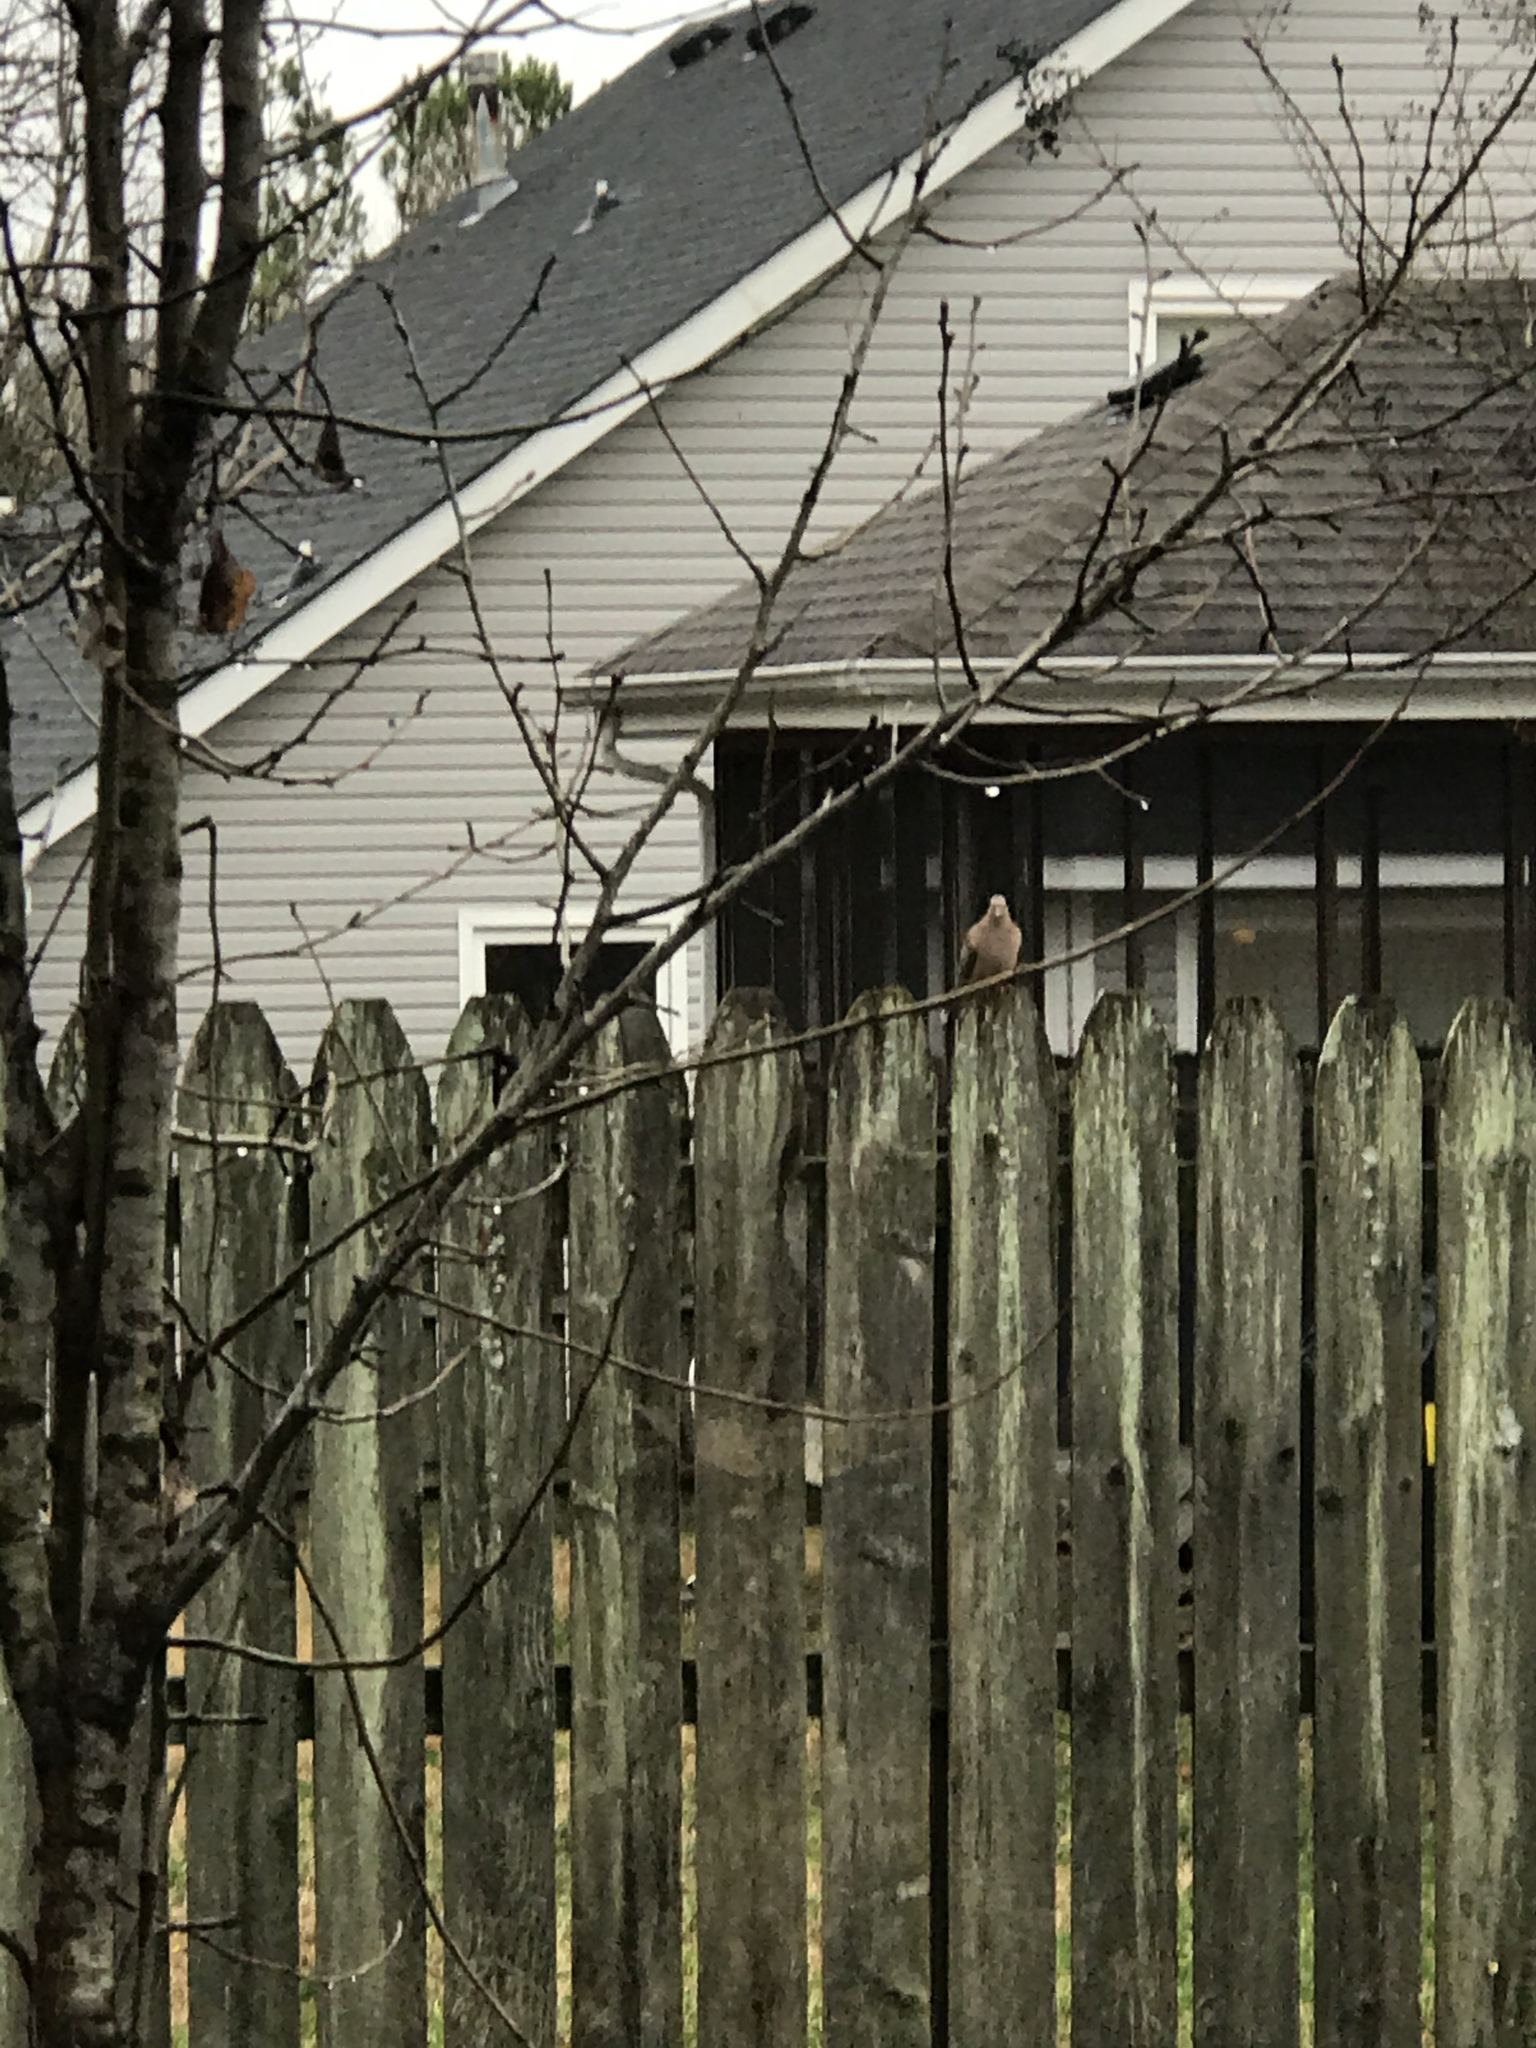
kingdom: Animalia
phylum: Chordata
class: Aves
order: Columbiformes
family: Columbidae
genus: Zenaida
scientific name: Zenaida macroura
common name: Mourning dove
